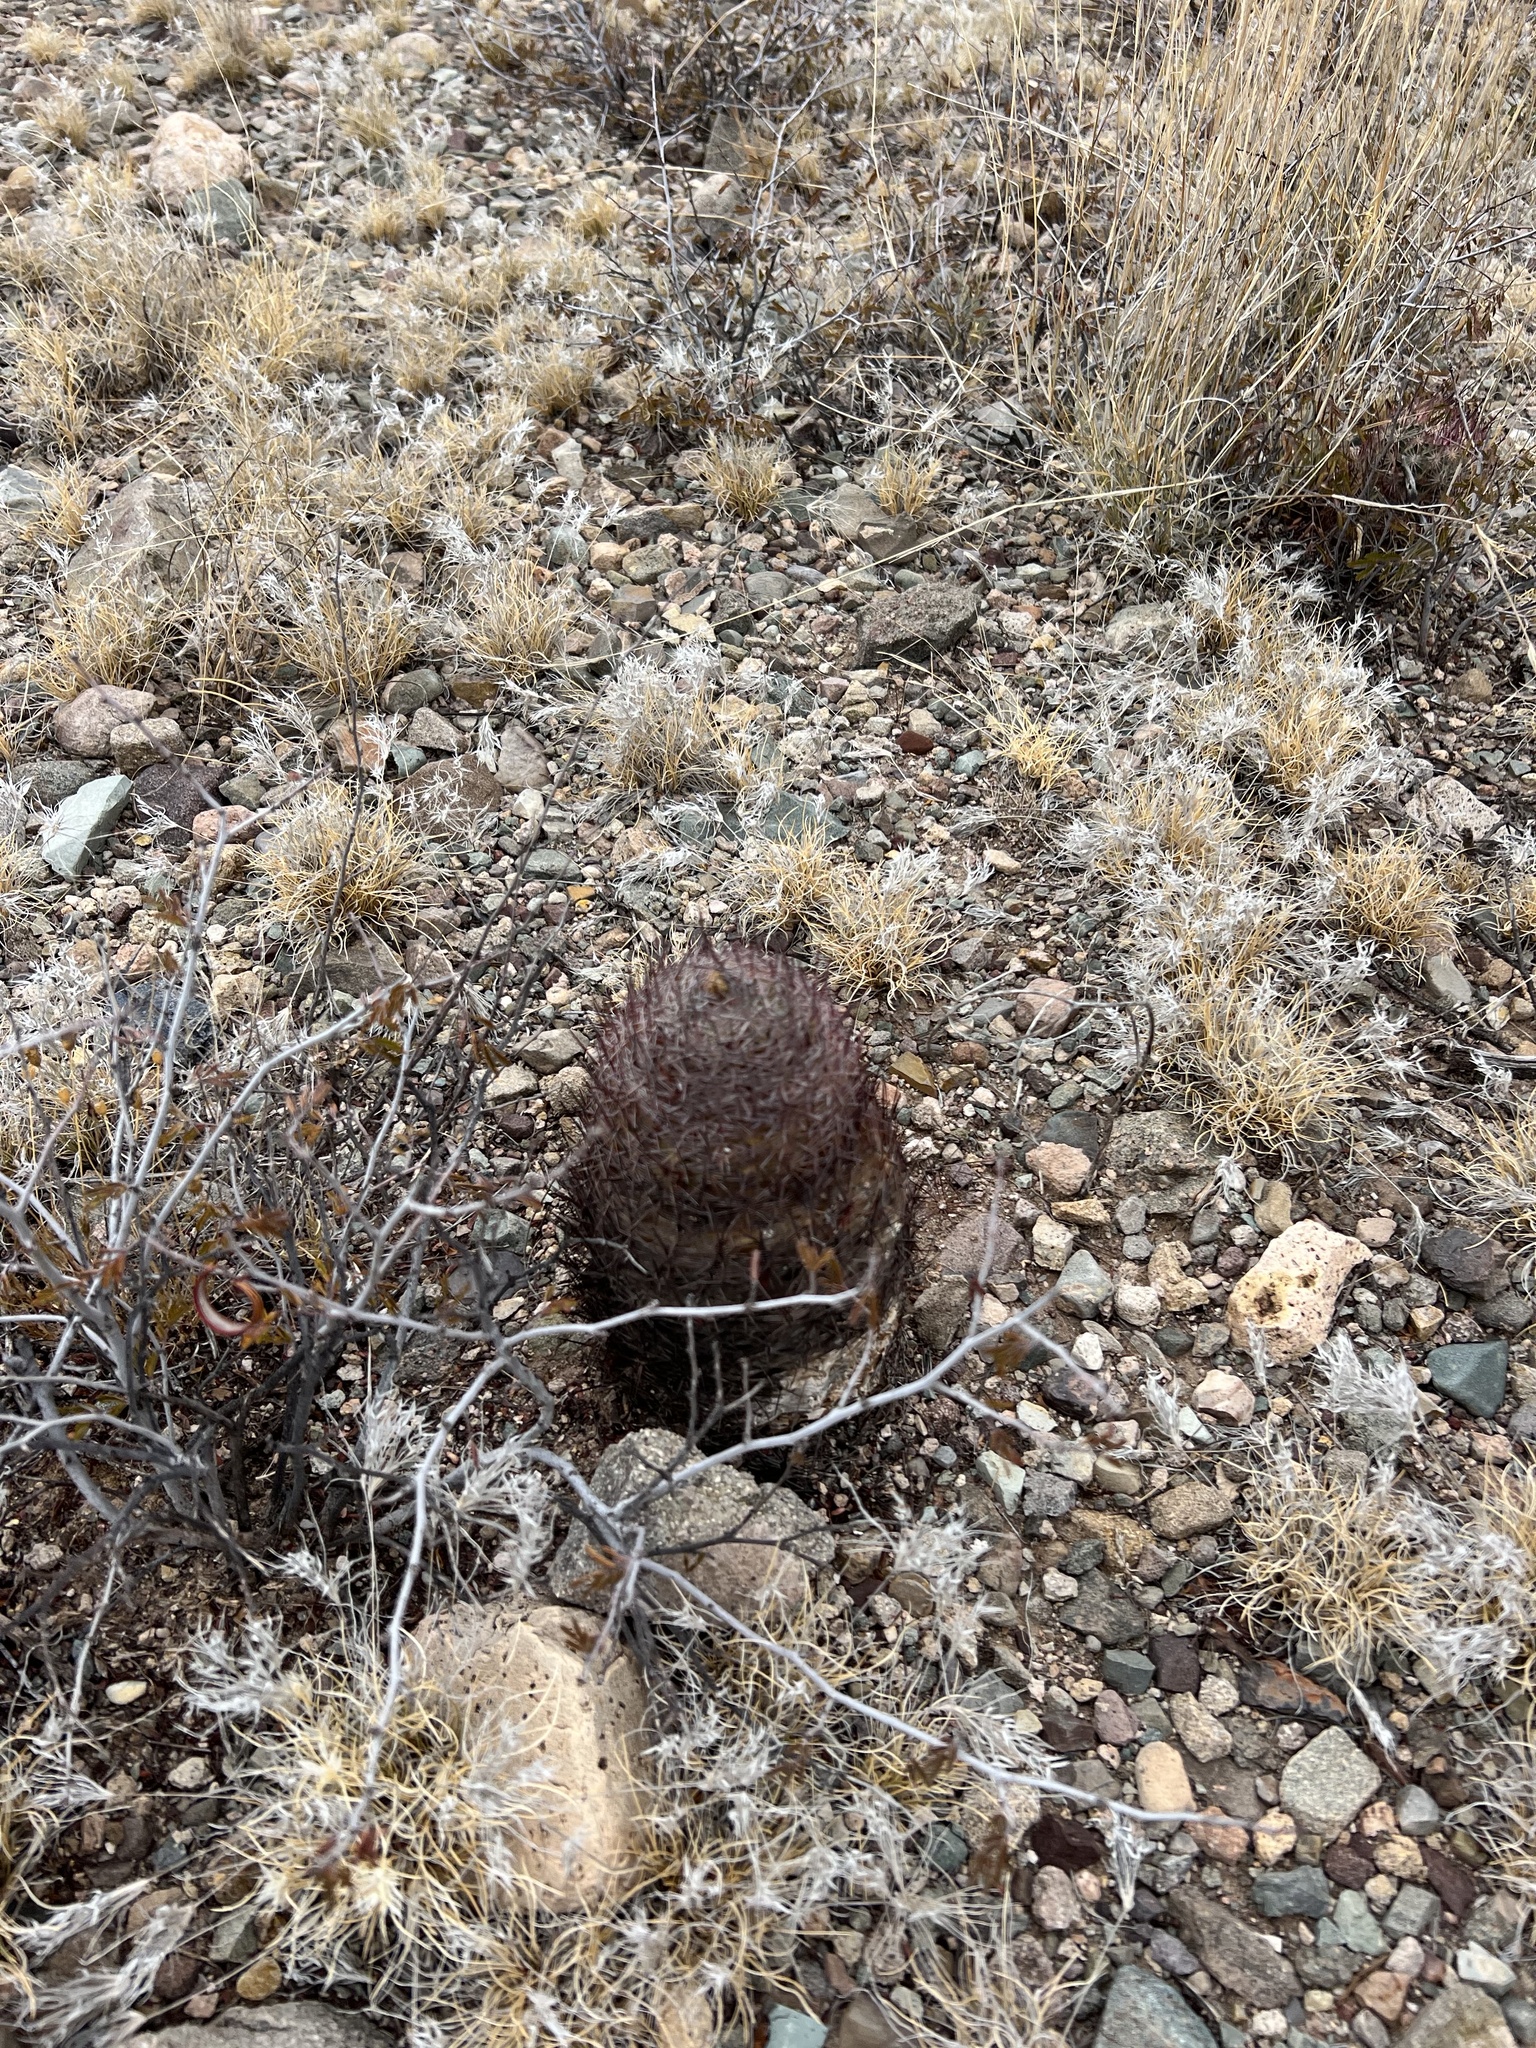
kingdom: Plantae
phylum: Tracheophyta
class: Magnoliopsida
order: Caryophyllales
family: Cactaceae
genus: Sclerocactus
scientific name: Sclerocactus johnsonii
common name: Eight-spine fishhook cactus
